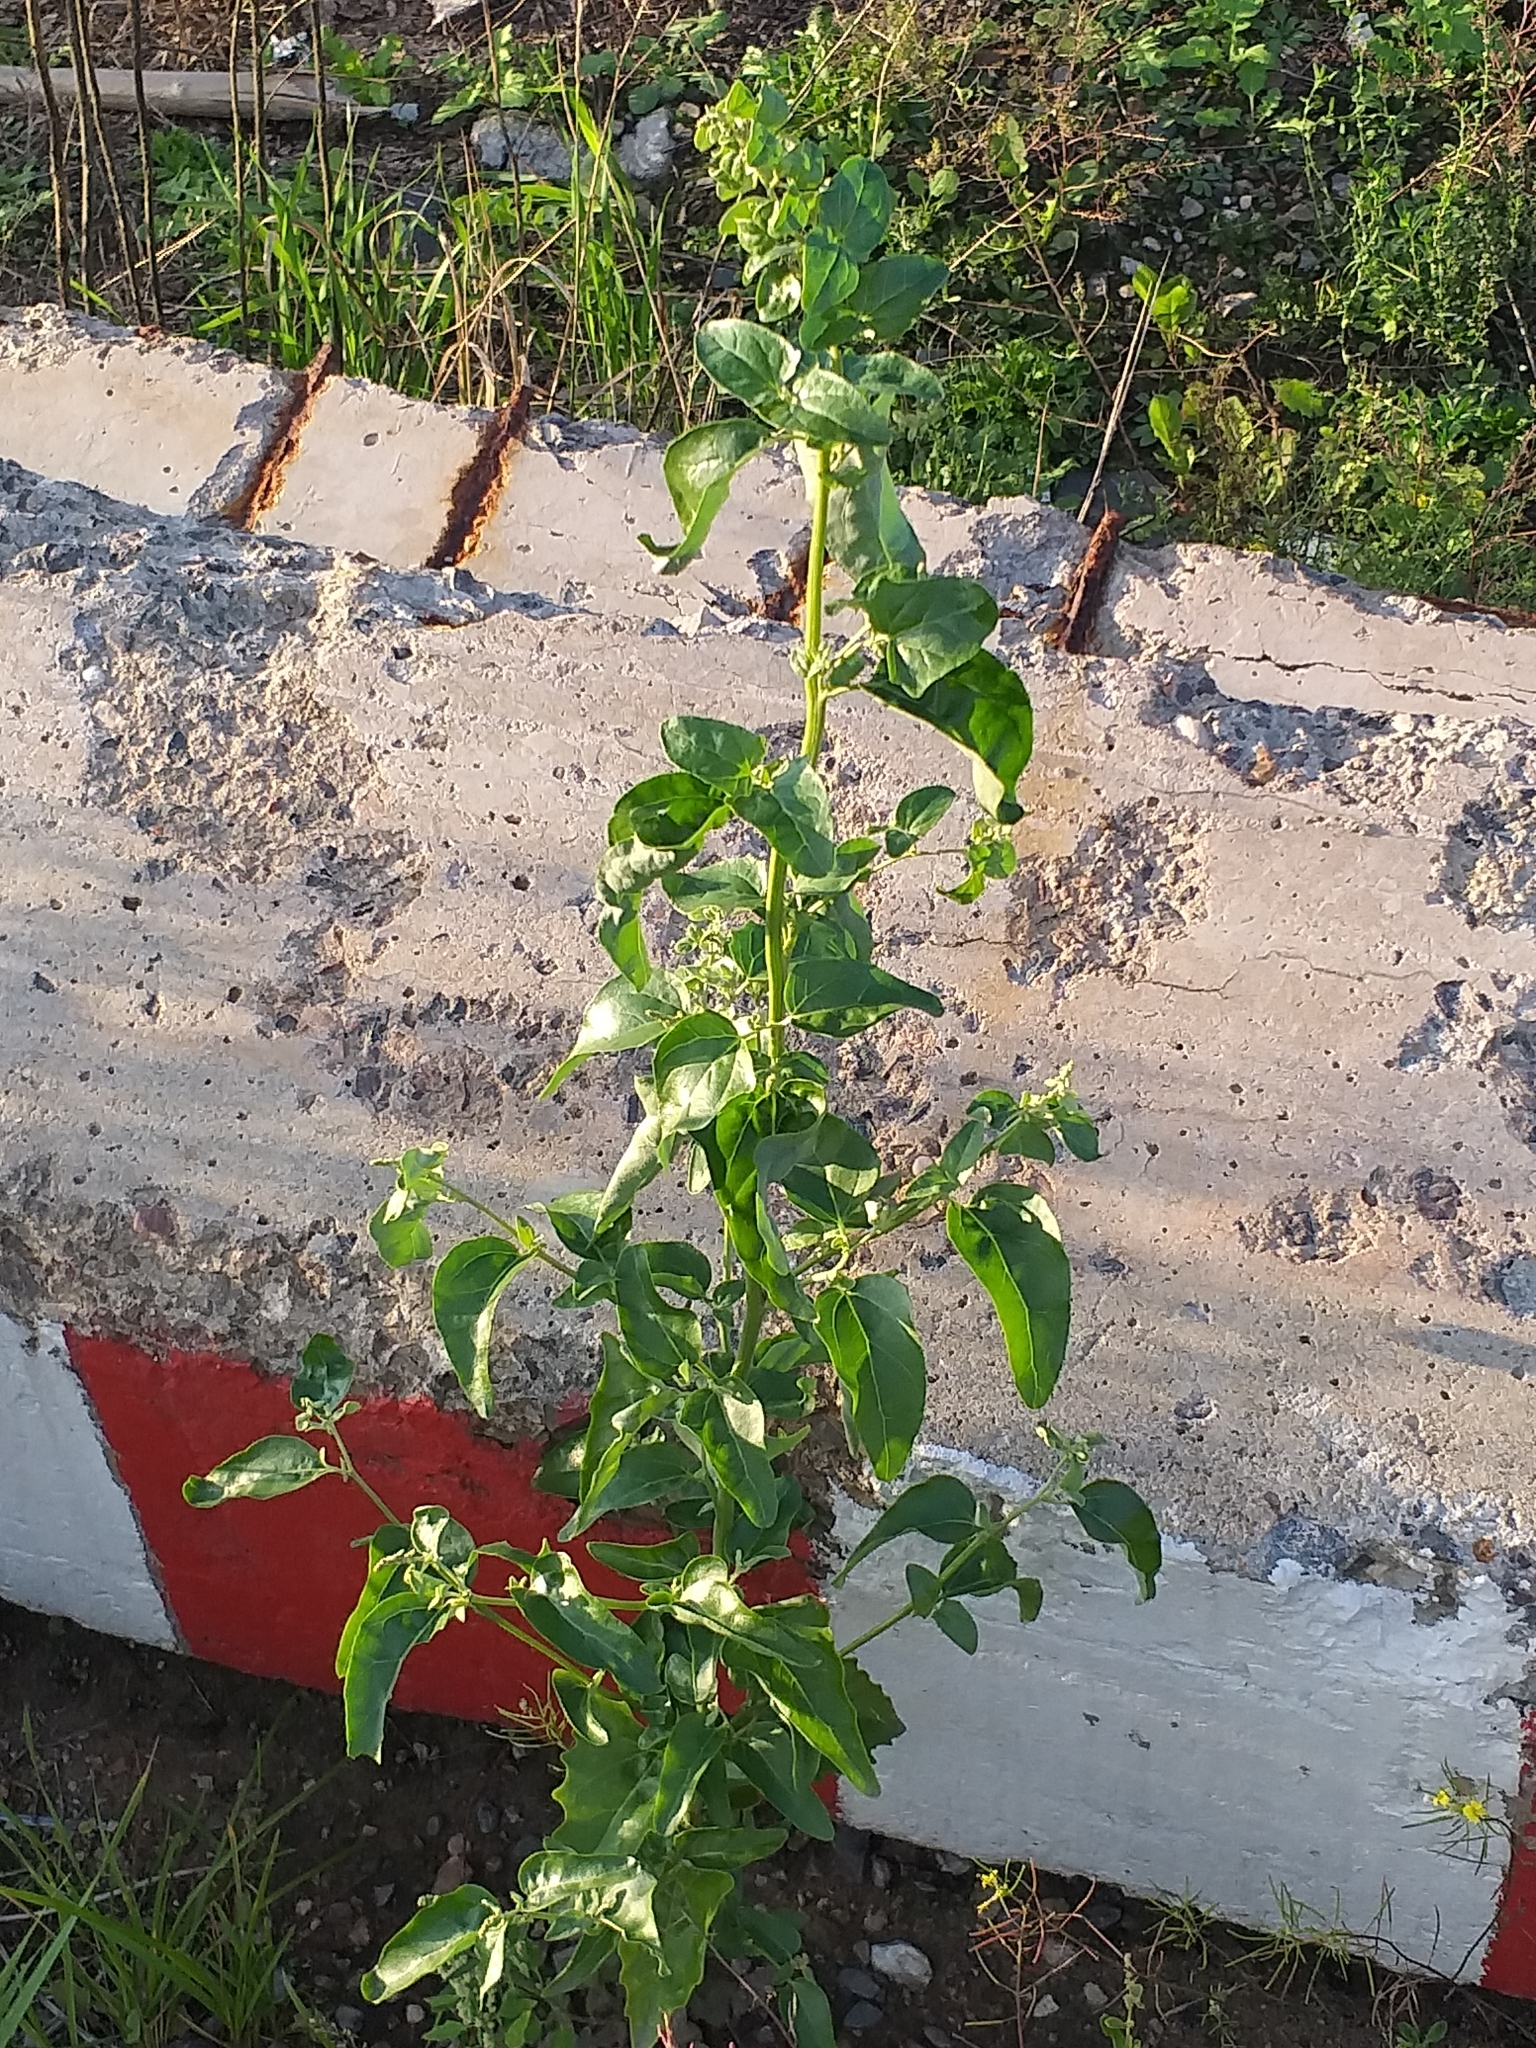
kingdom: Plantae
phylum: Tracheophyta
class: Magnoliopsida
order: Caryophyllales
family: Amaranthaceae
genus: Atriplex
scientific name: Atriplex sagittata
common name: Purple orache
